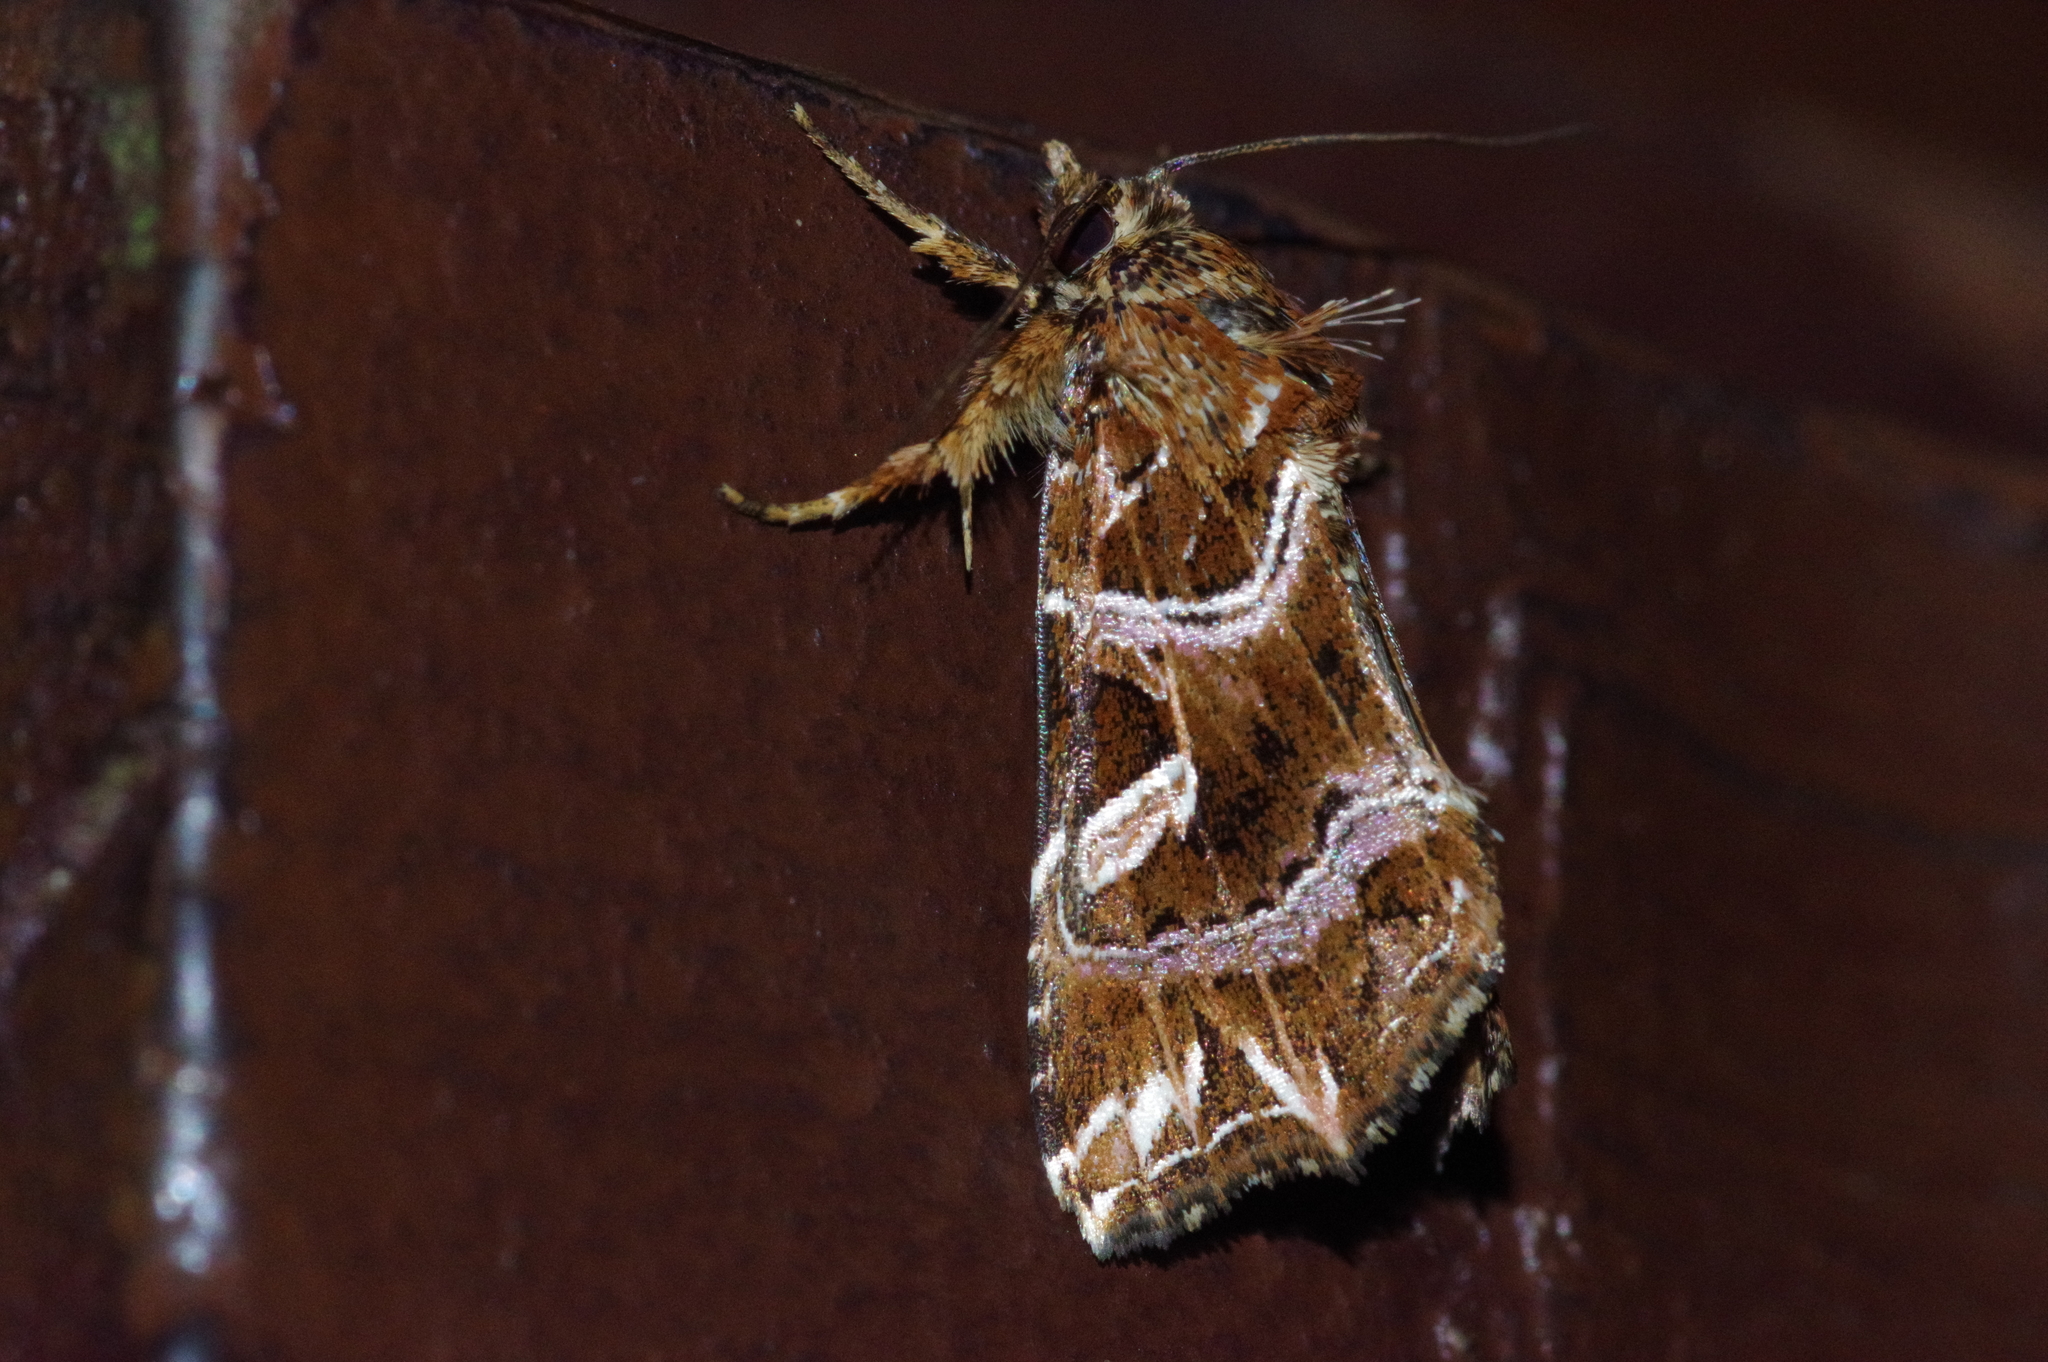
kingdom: Animalia
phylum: Arthropoda
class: Insecta
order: Lepidoptera
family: Noctuidae
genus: Callopistria
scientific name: Callopistria duplicans
